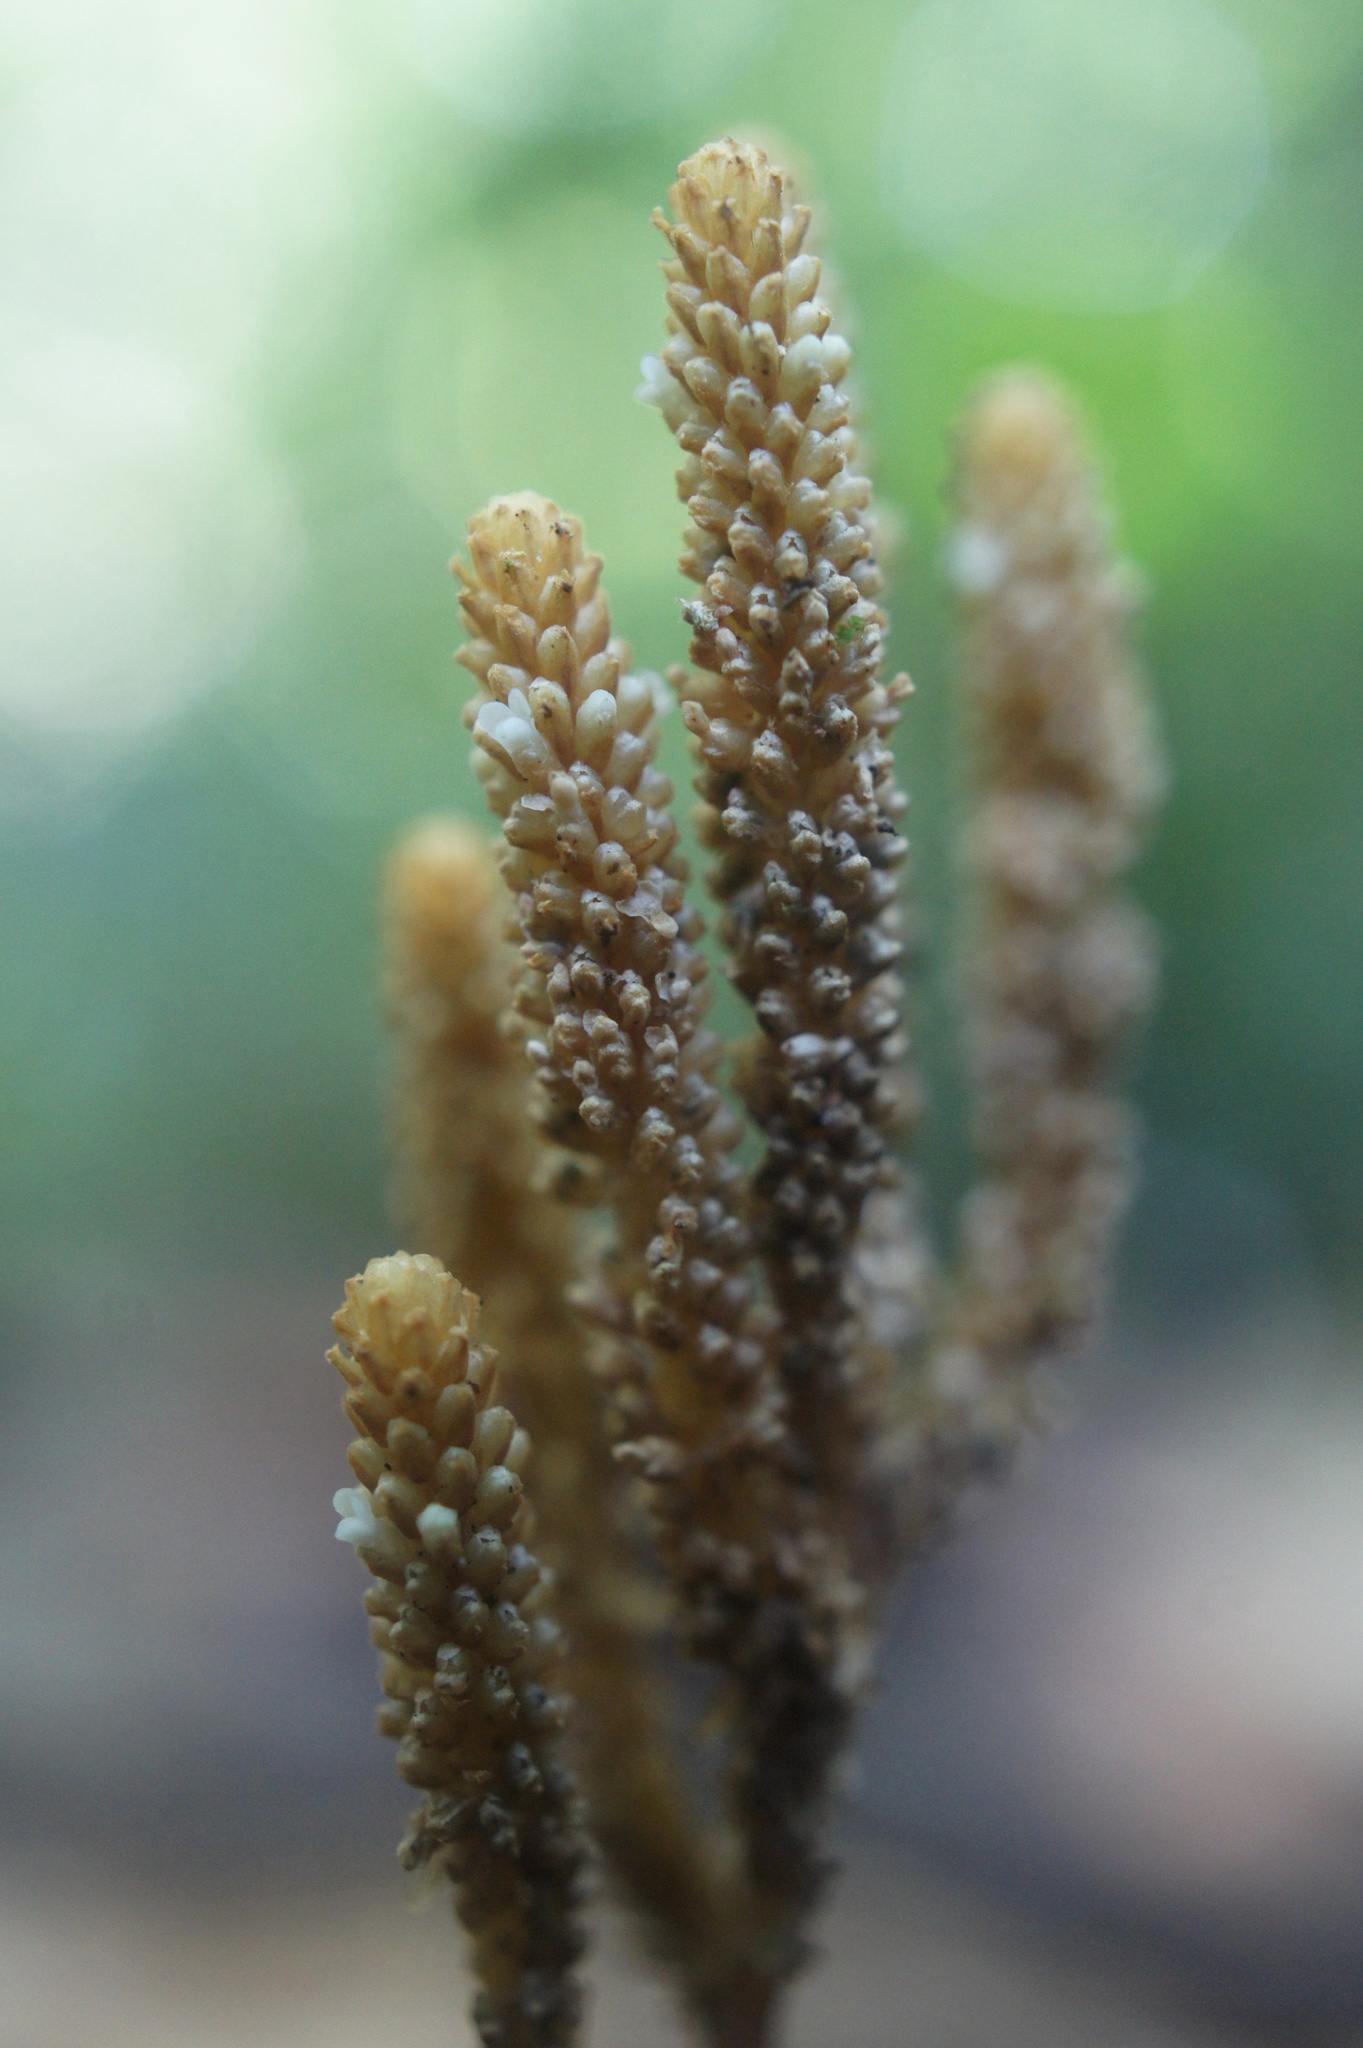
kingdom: Plantae
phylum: Tracheophyta
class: Magnoliopsida
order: Fabales
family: Polygalaceae
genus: Epirixanthes
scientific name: Epirixanthes papuana
